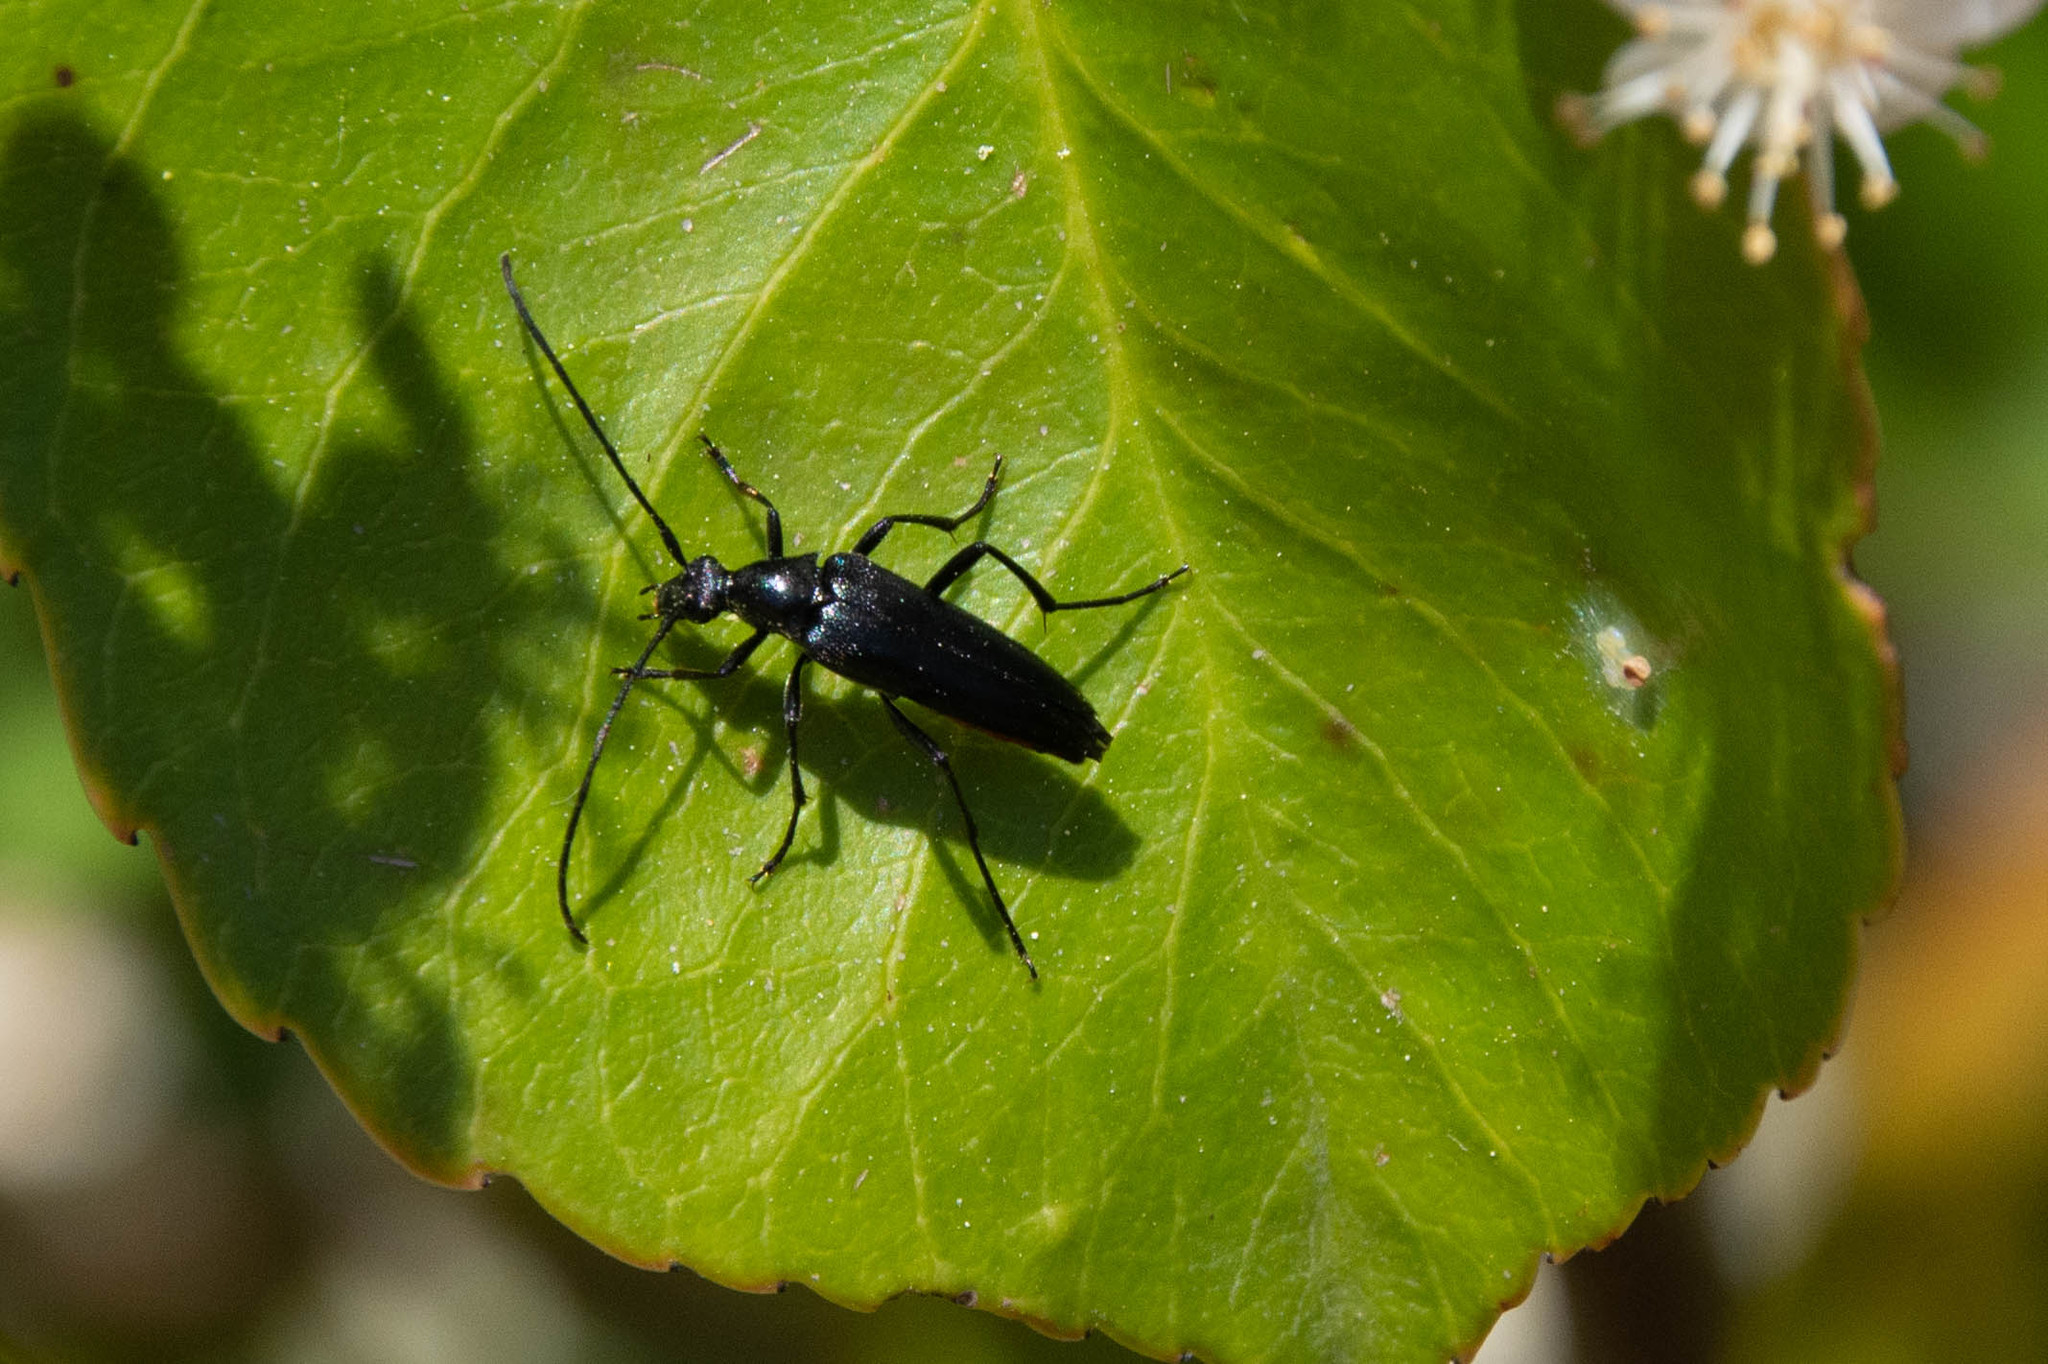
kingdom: Animalia
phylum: Arthropoda
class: Insecta
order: Coleoptera
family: Cerambycidae
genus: Stenurella
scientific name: Stenurella nigra
